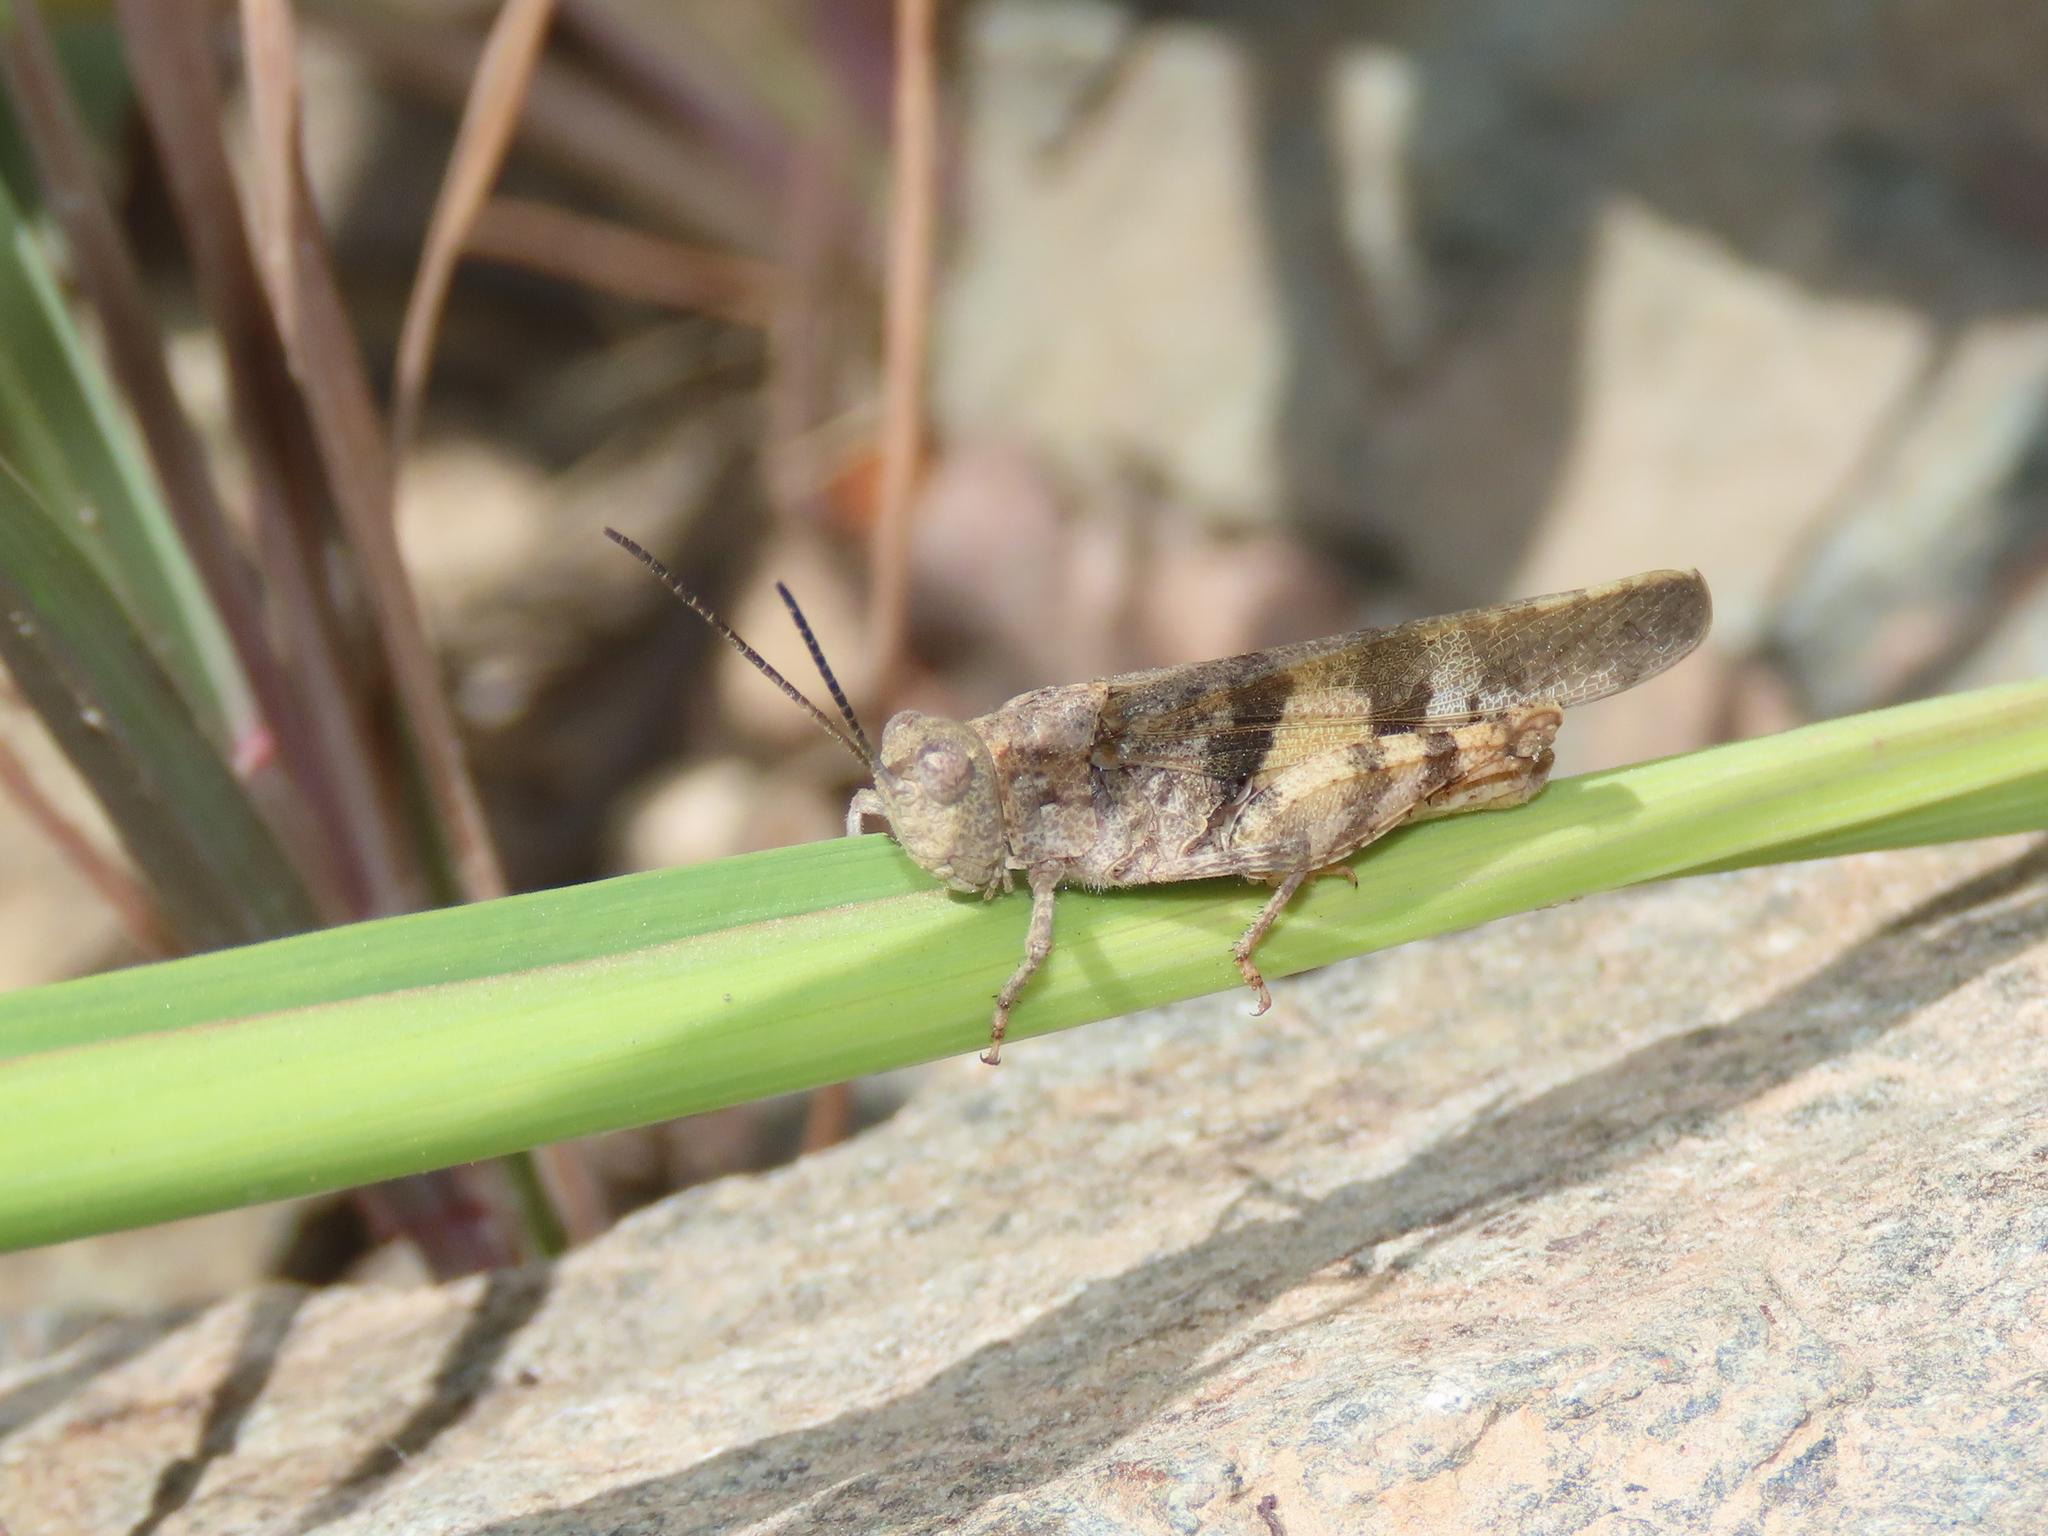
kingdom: Animalia
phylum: Arthropoda
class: Insecta
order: Orthoptera
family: Acrididae
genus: Trimerotropis
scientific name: Trimerotropis modesta
